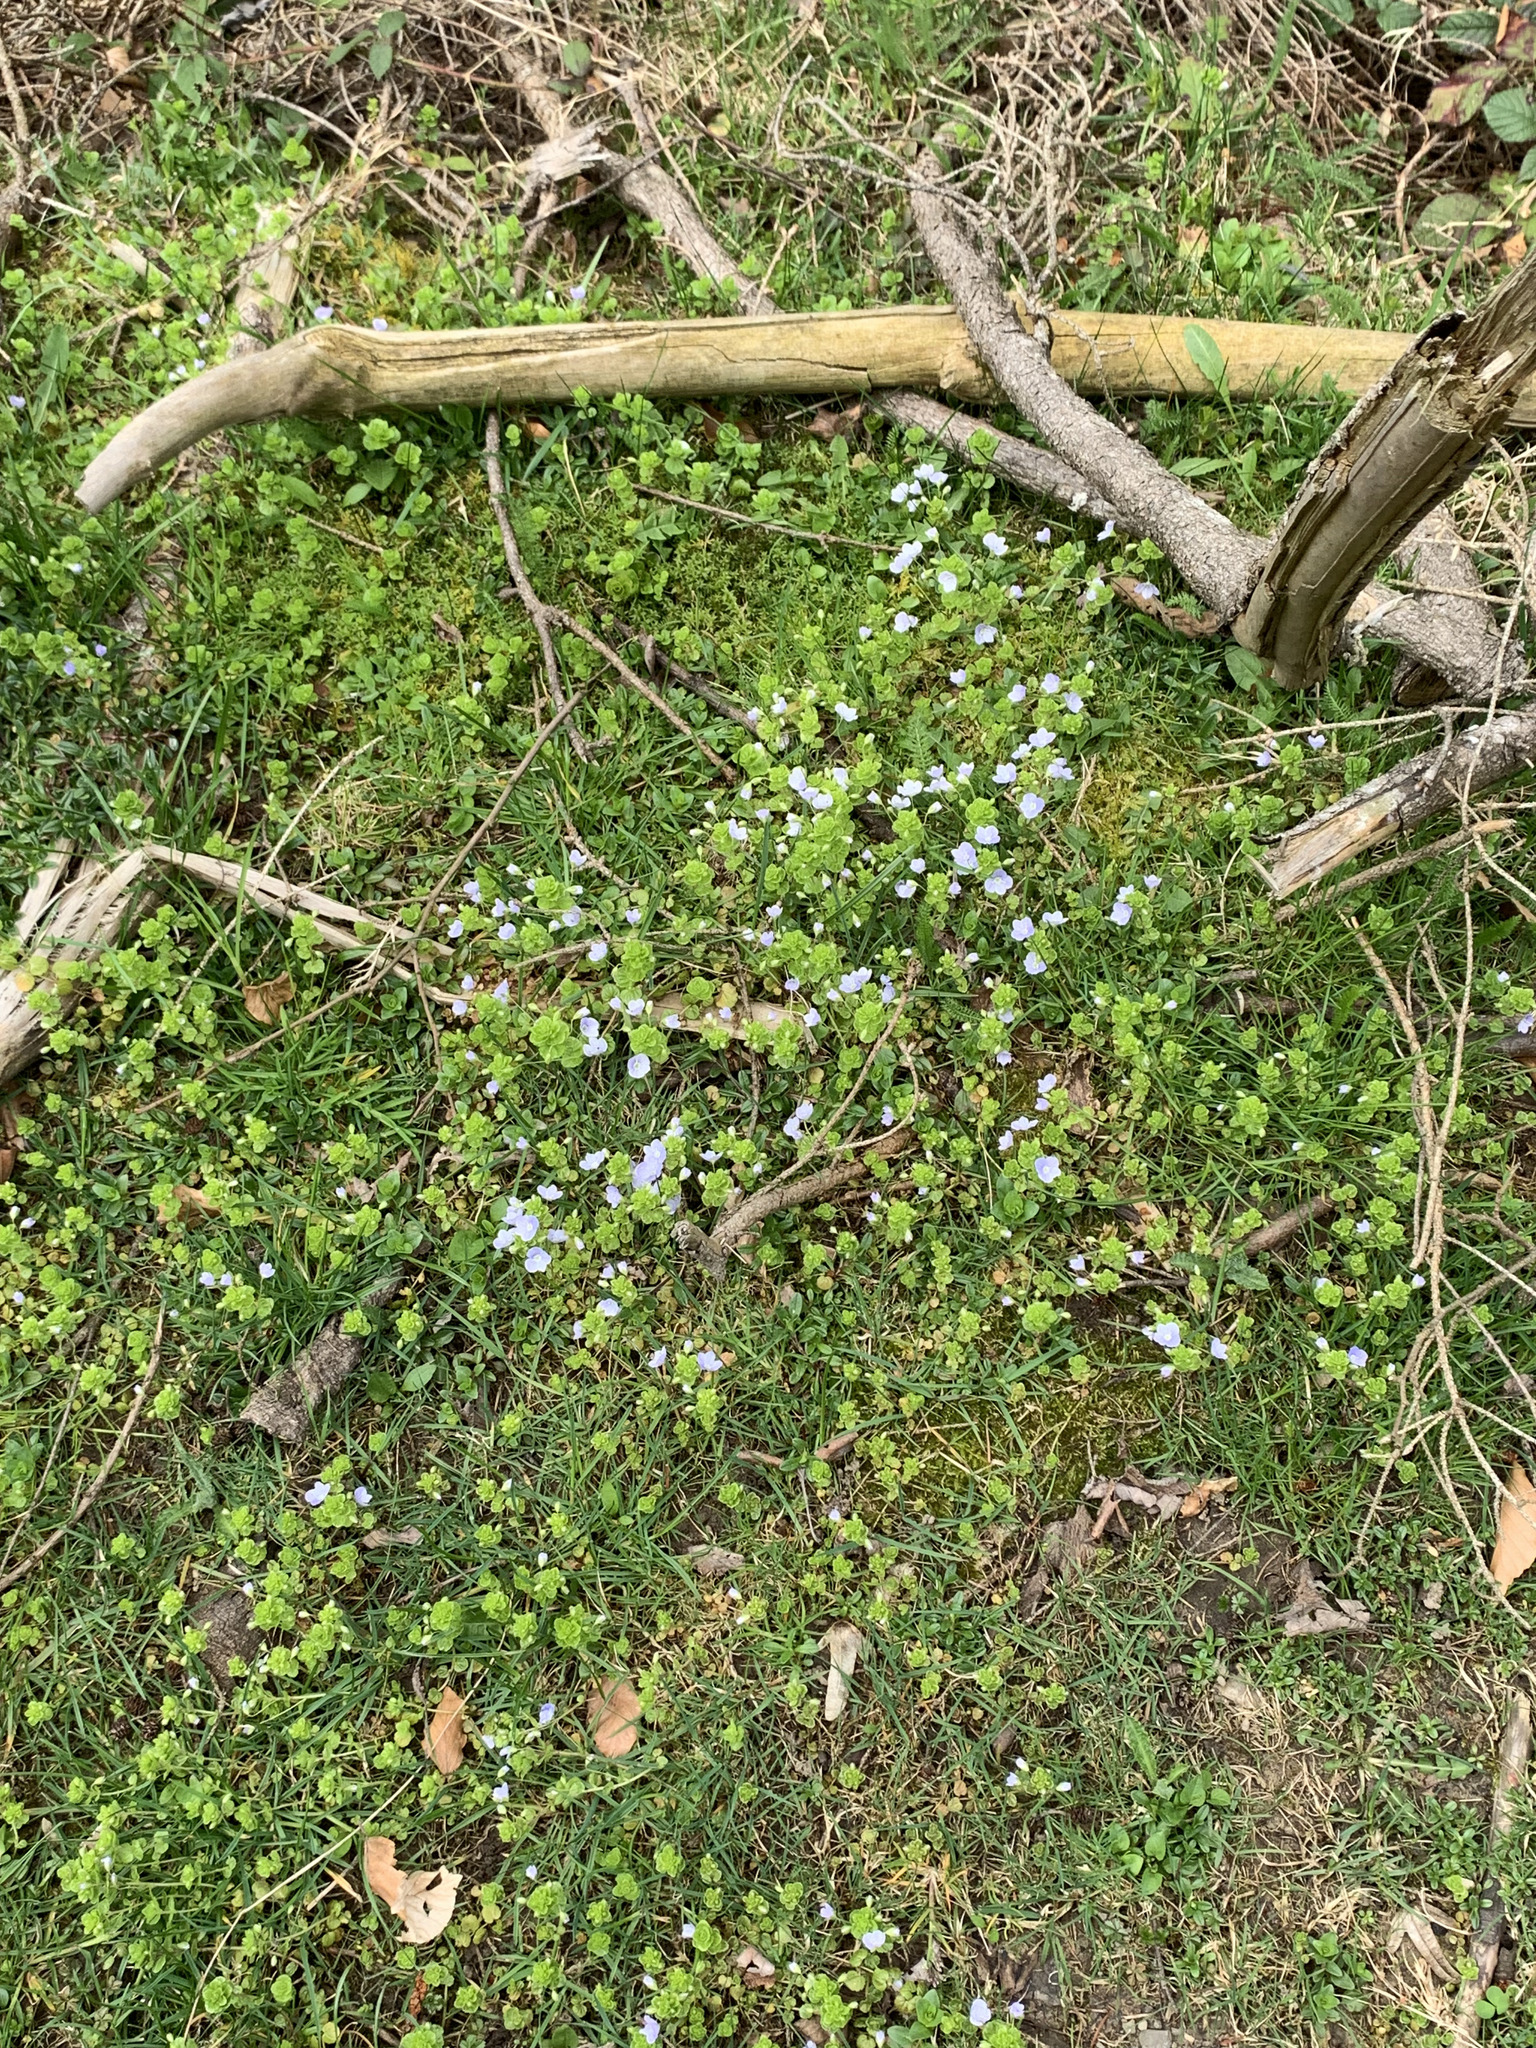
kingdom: Plantae
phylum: Tracheophyta
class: Magnoliopsida
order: Lamiales
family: Plantaginaceae
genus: Veronica
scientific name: Veronica filiformis
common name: Slender speedwell
